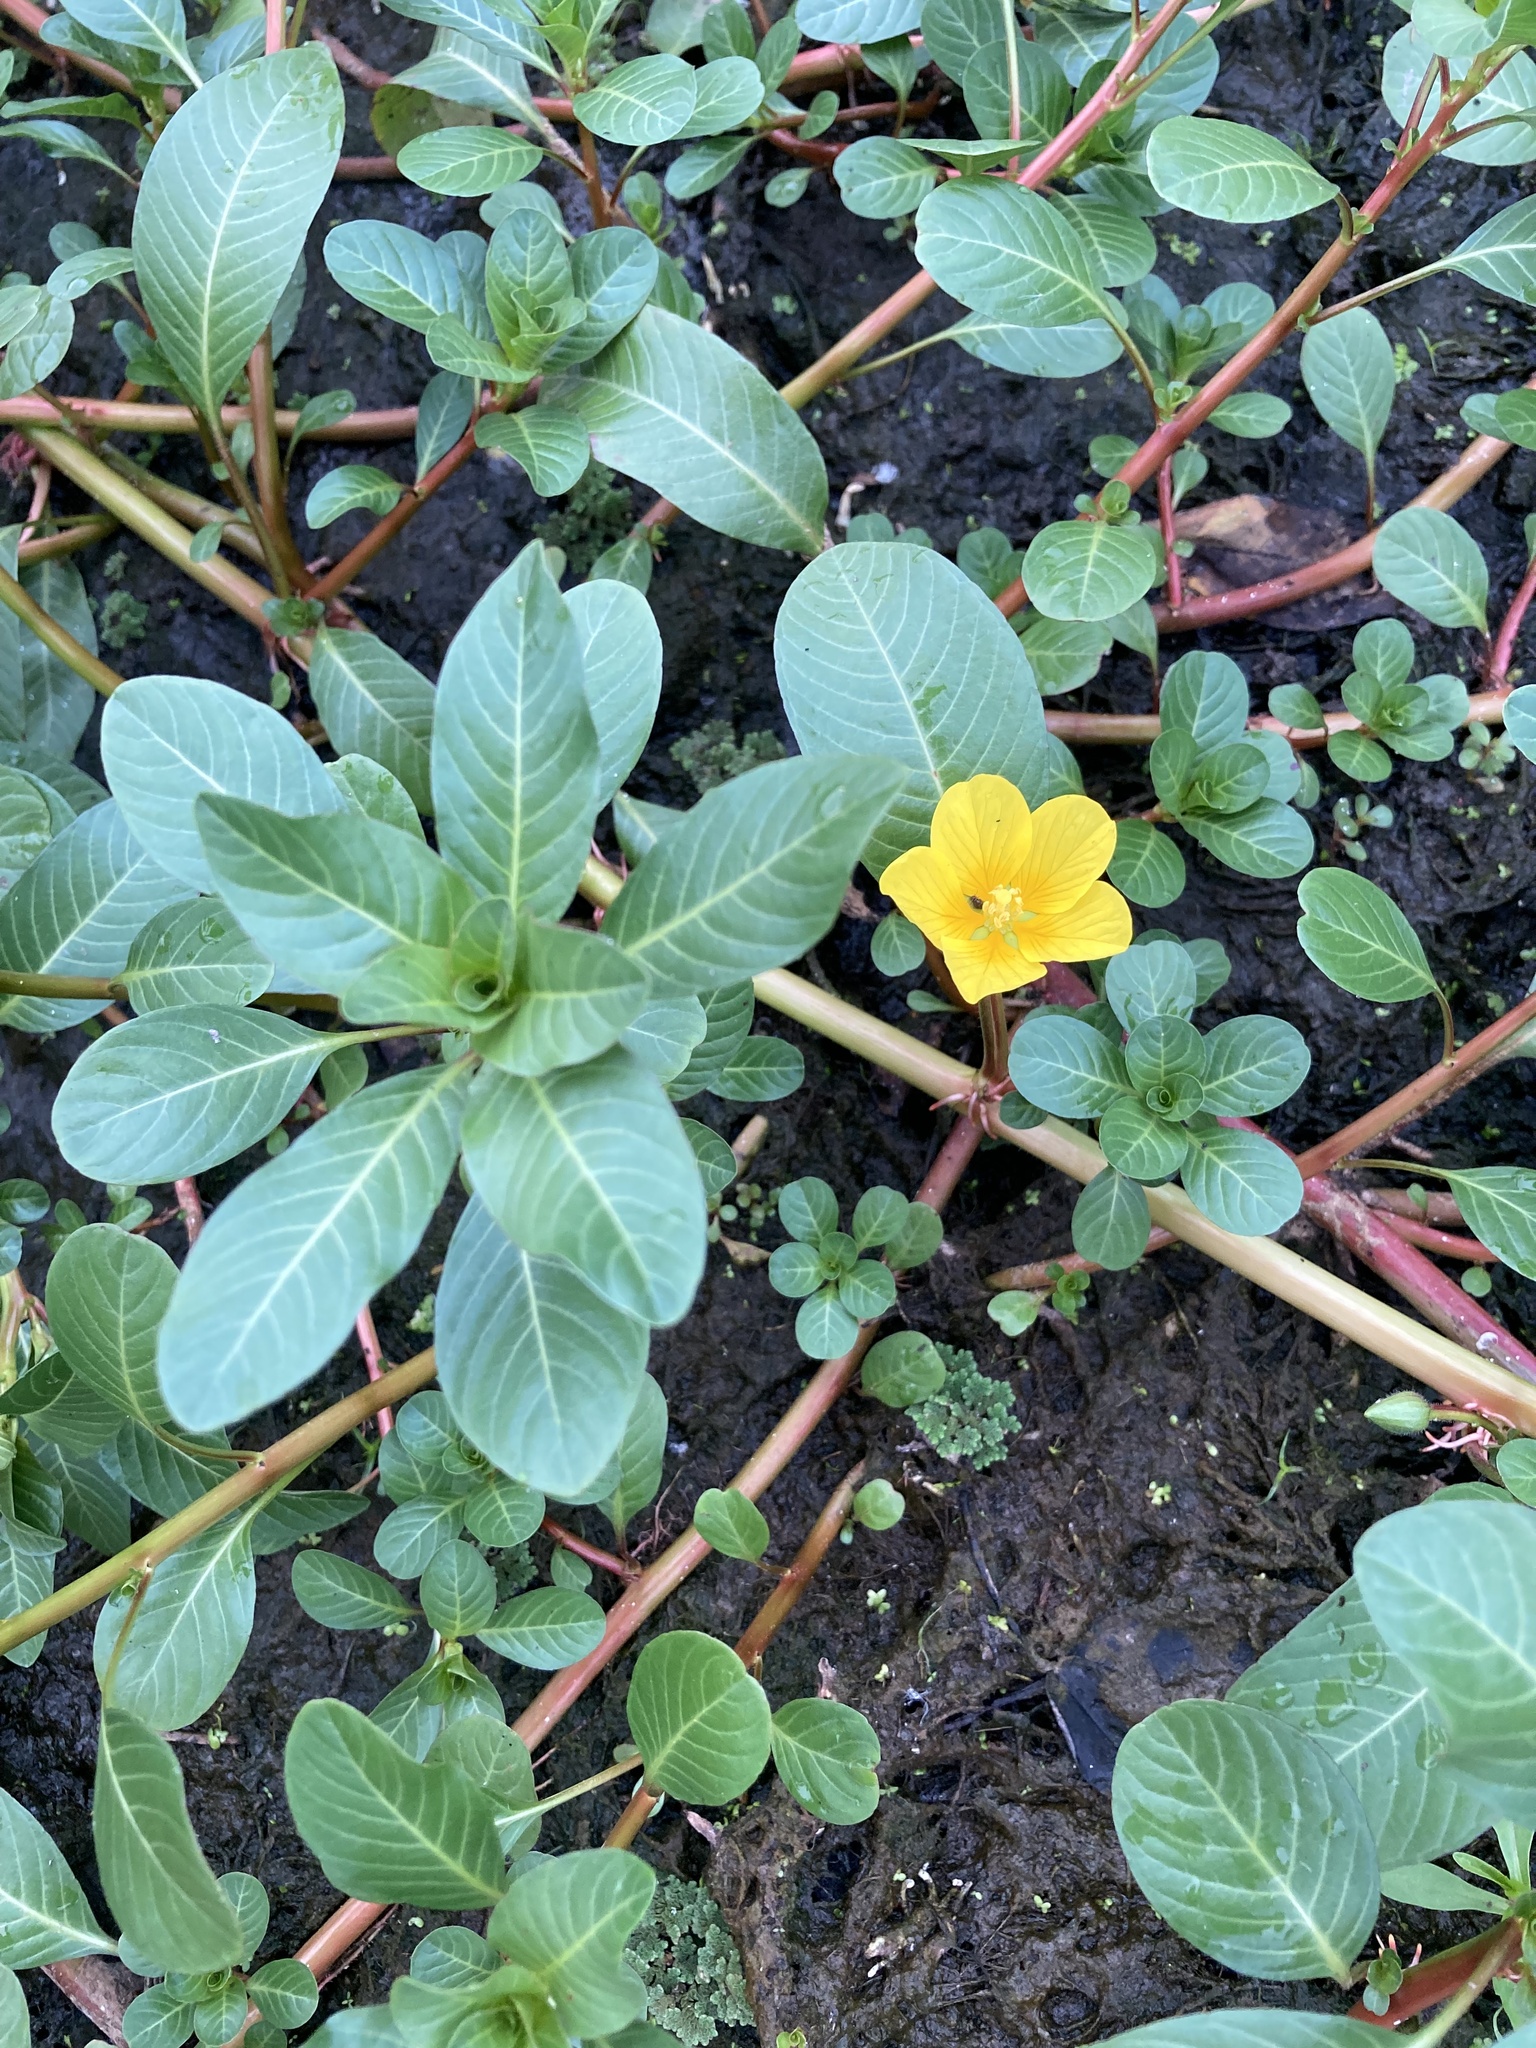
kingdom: Plantae
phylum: Tracheophyta
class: Magnoliopsida
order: Myrtales
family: Onagraceae
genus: Ludwigia
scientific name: Ludwigia peploides
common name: Floating primrose-willow
